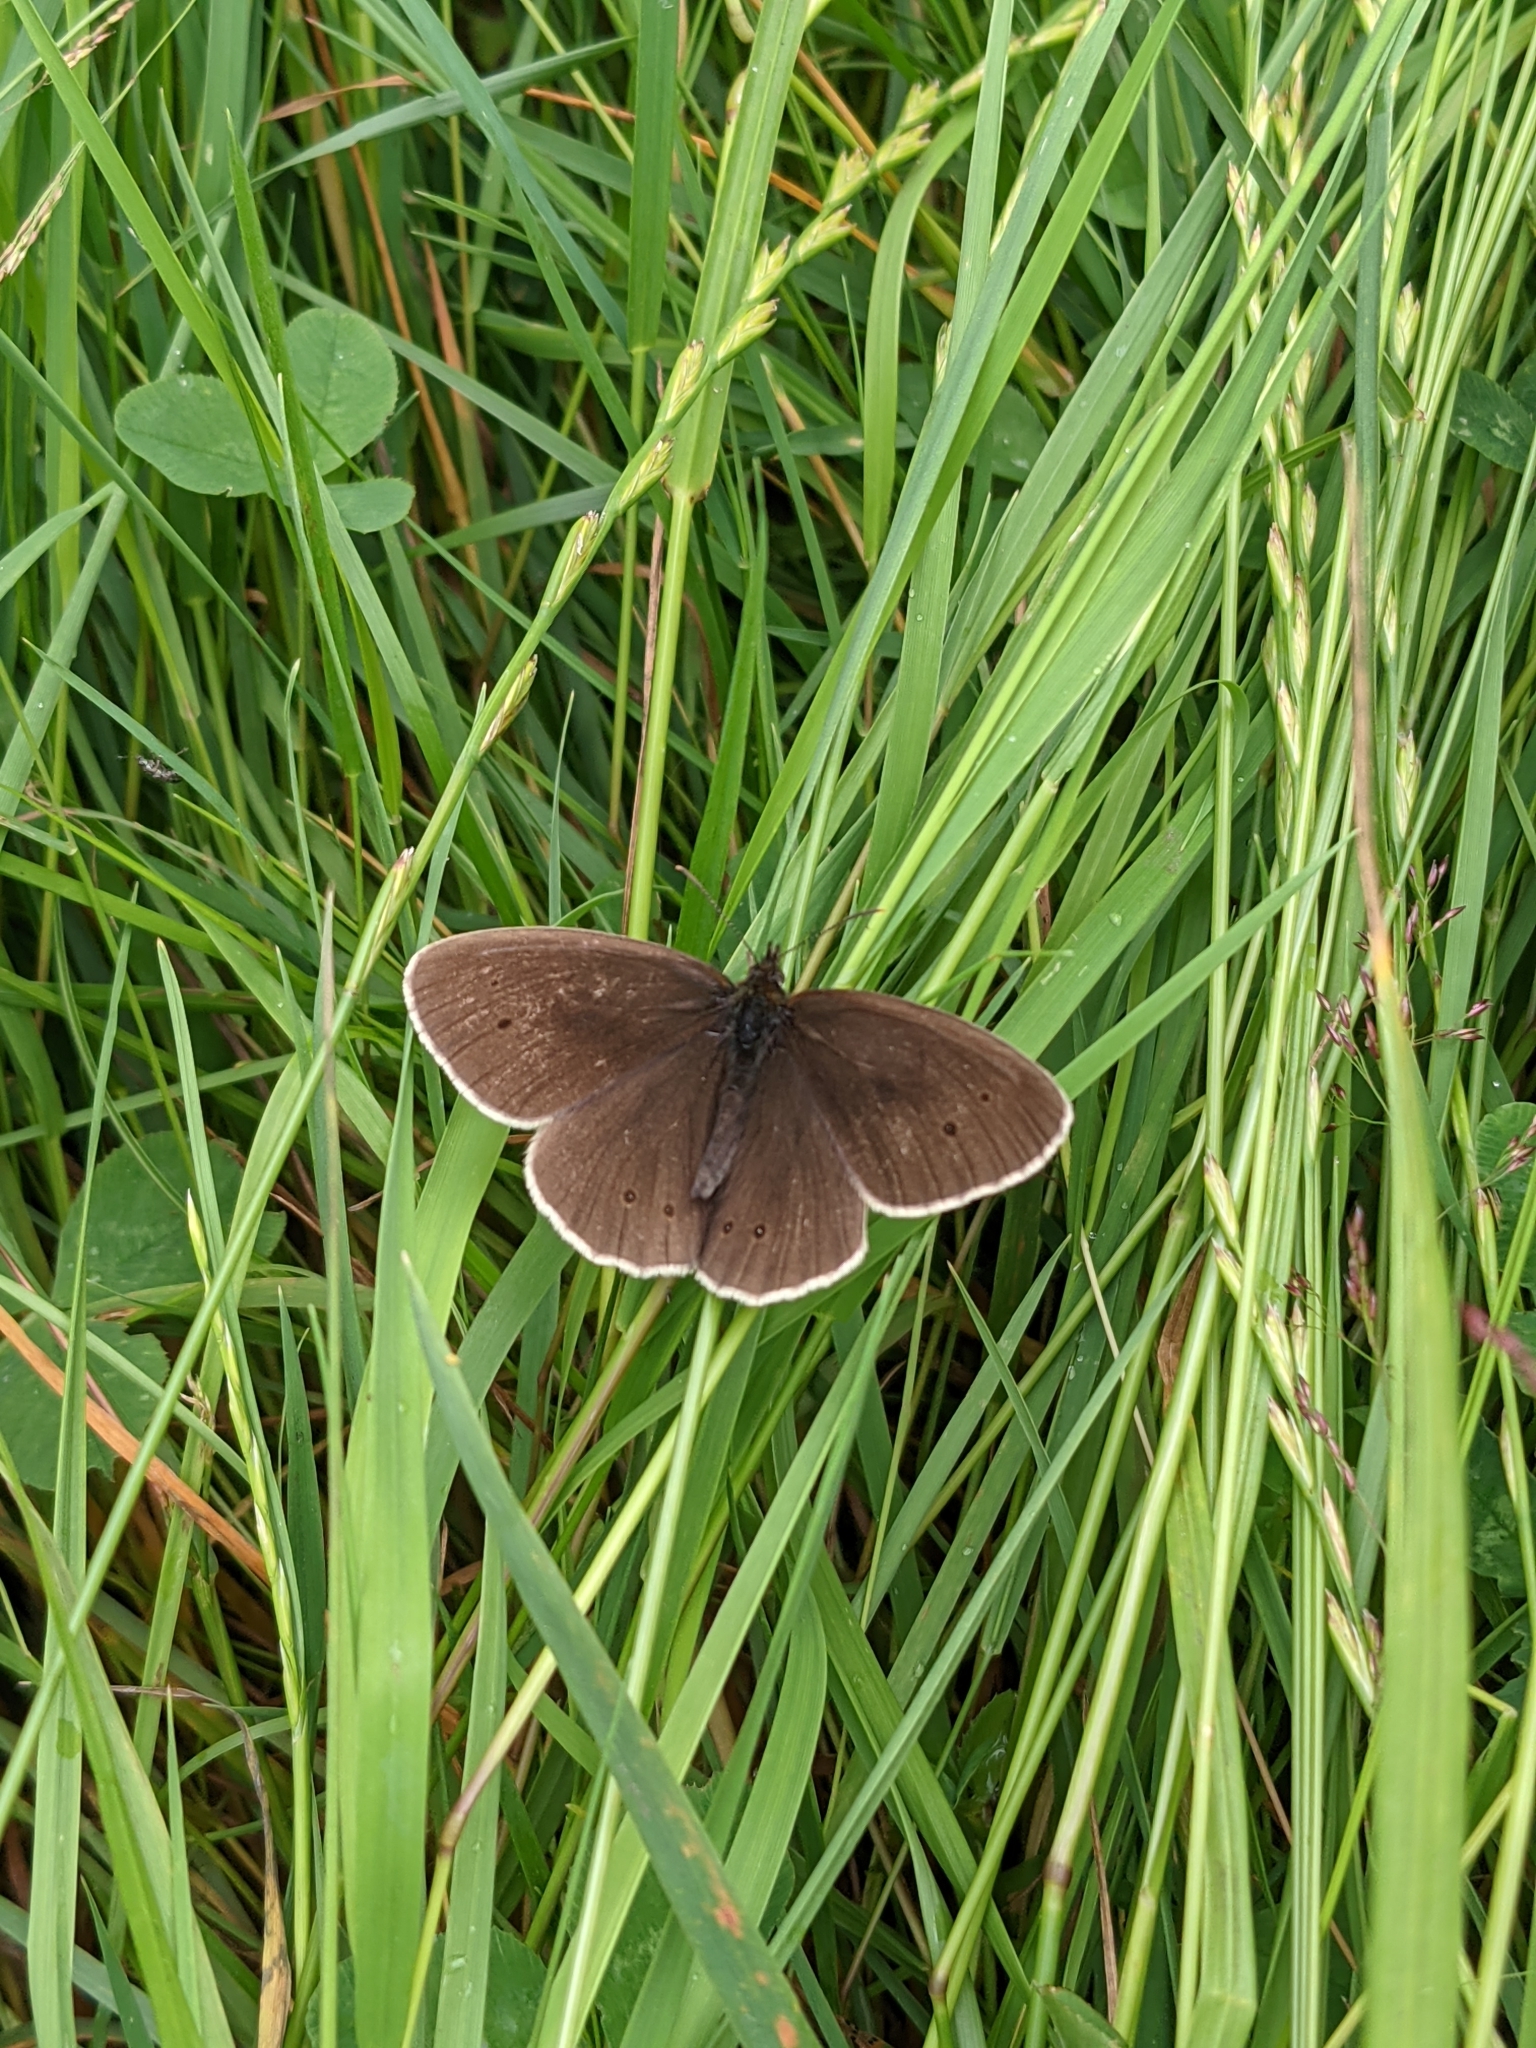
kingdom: Animalia
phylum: Arthropoda
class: Insecta
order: Lepidoptera
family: Nymphalidae
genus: Aphantopus
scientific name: Aphantopus hyperantus
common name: Ringlet
